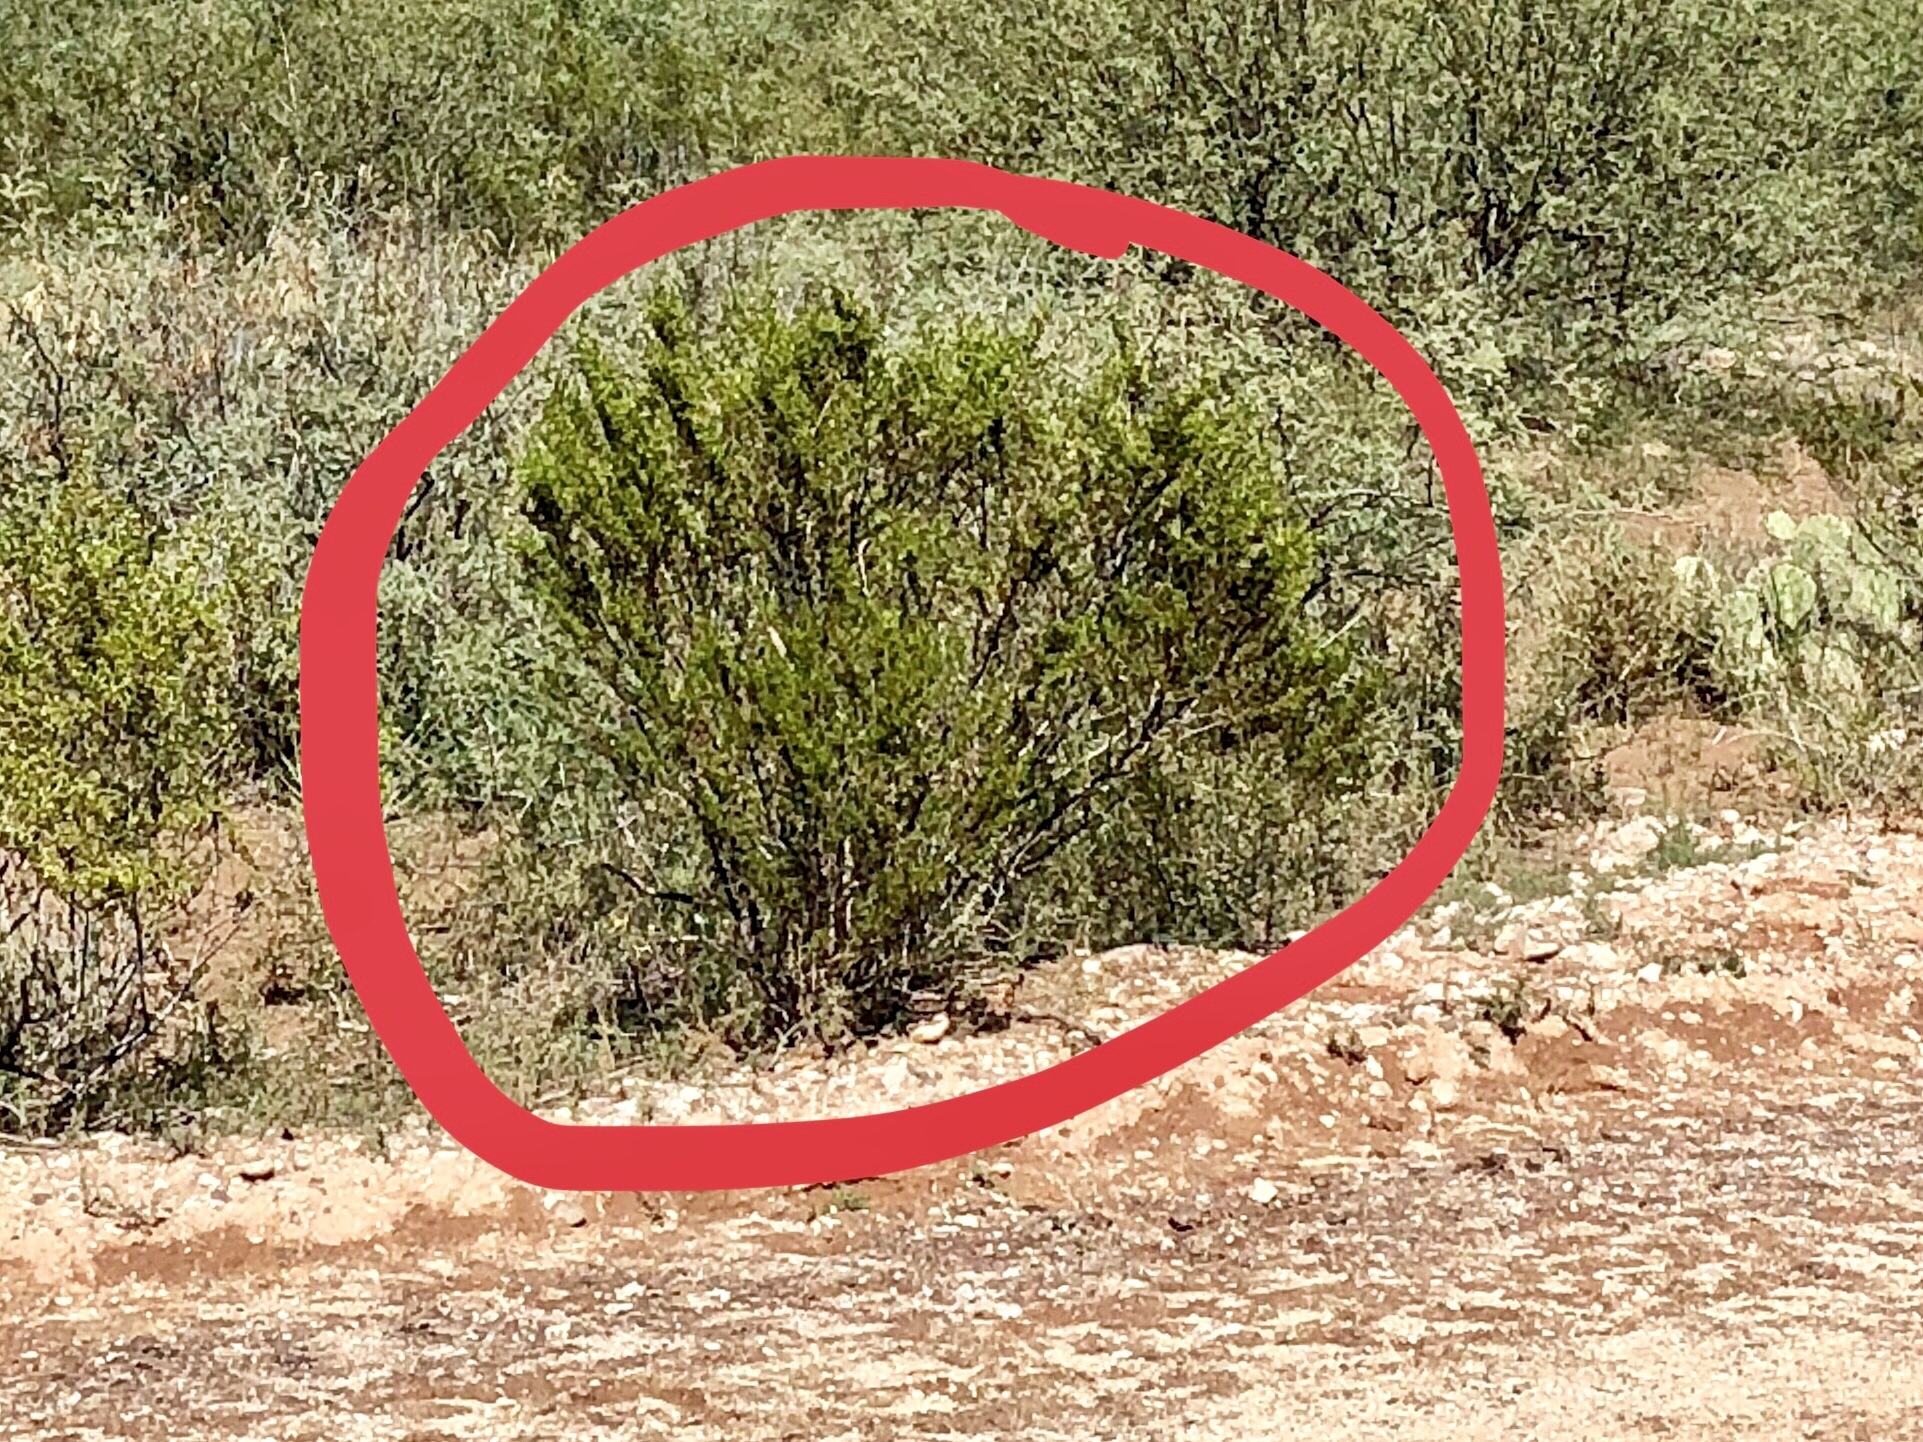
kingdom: Plantae
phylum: Tracheophyta
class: Magnoliopsida
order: Zygophyllales
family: Zygophyllaceae
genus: Larrea
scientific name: Larrea tridentata
